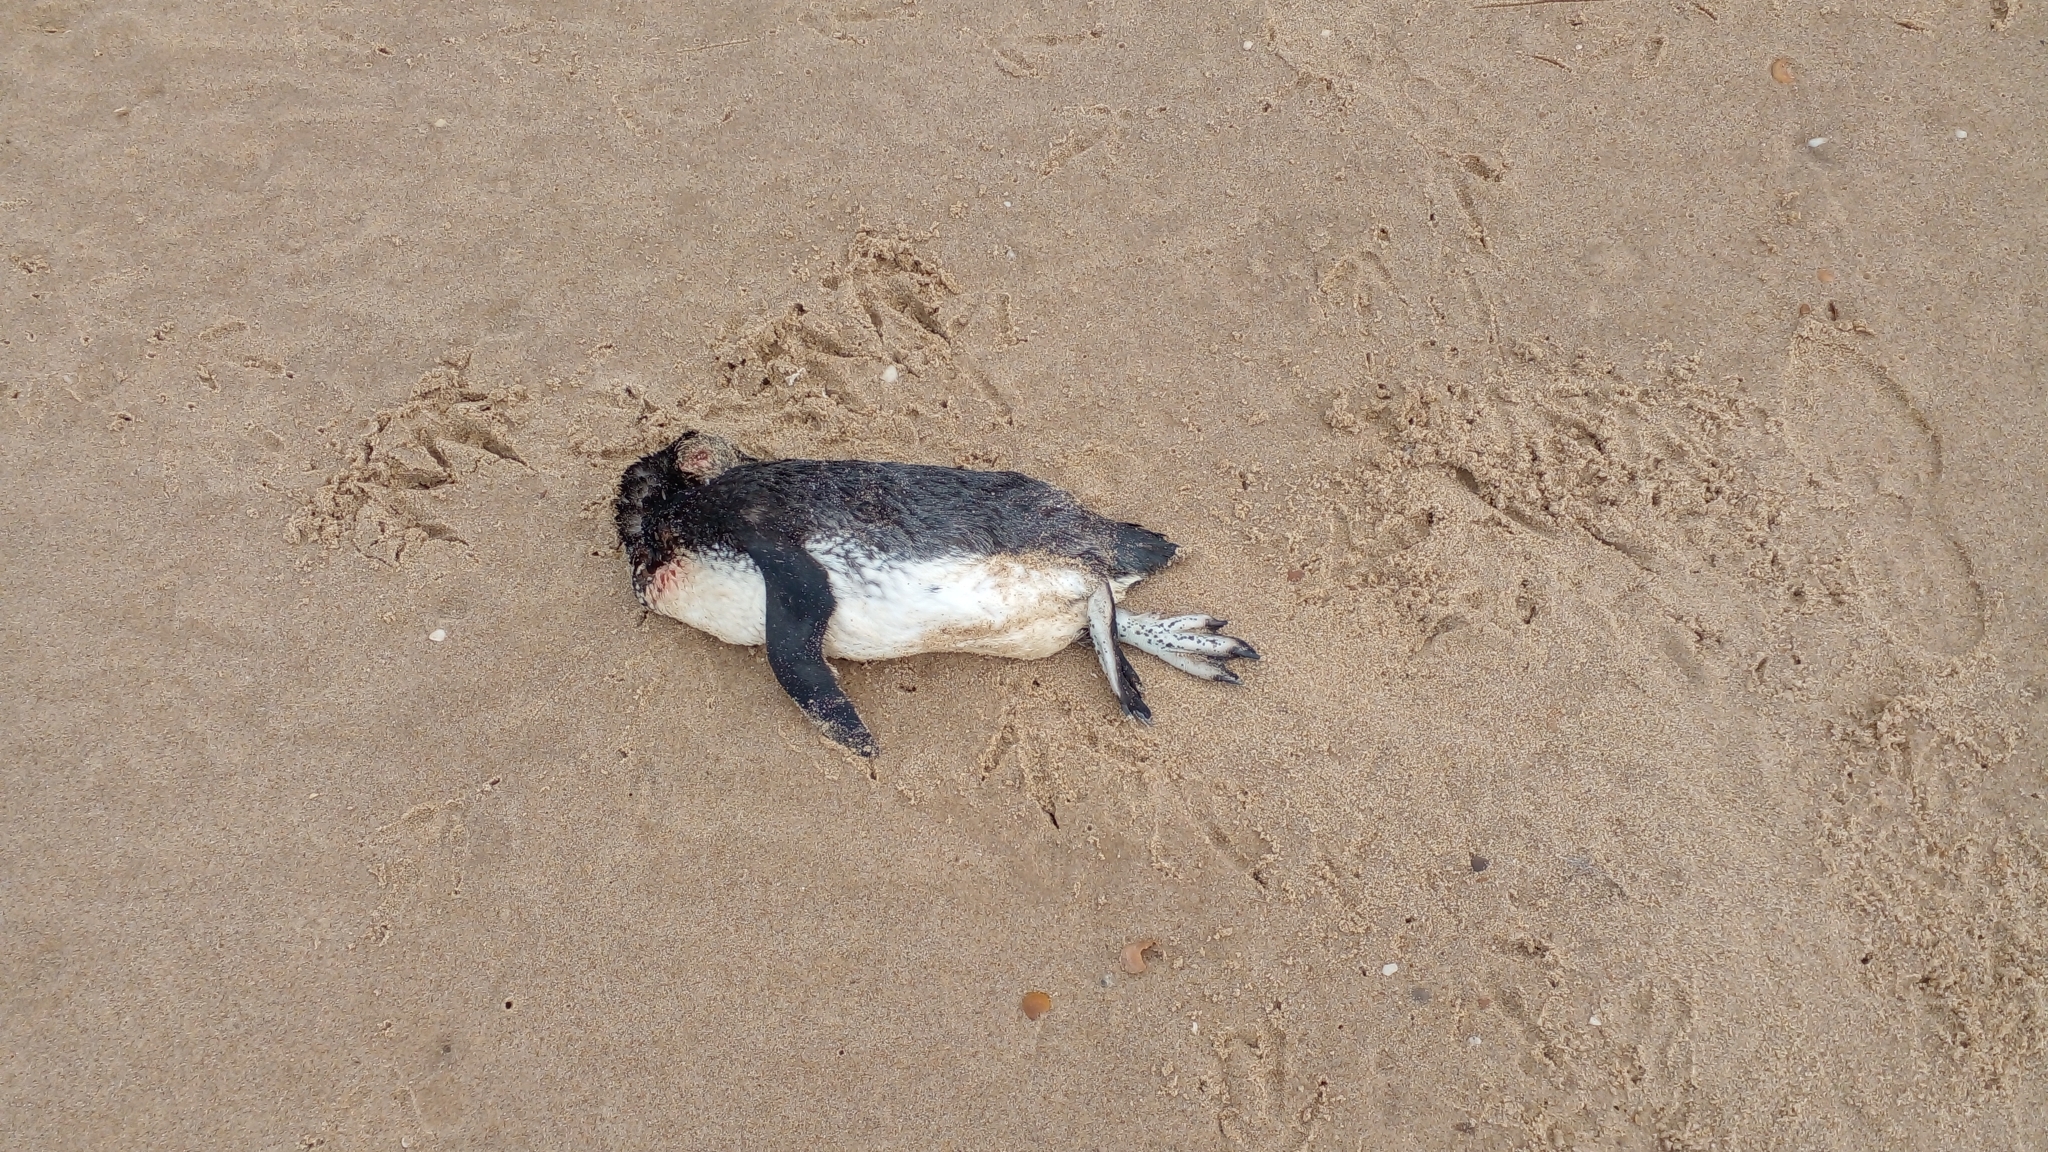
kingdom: Animalia
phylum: Chordata
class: Aves
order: Sphenisciformes
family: Spheniscidae
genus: Spheniscus
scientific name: Spheniscus magellanicus
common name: Magellanic penguin
